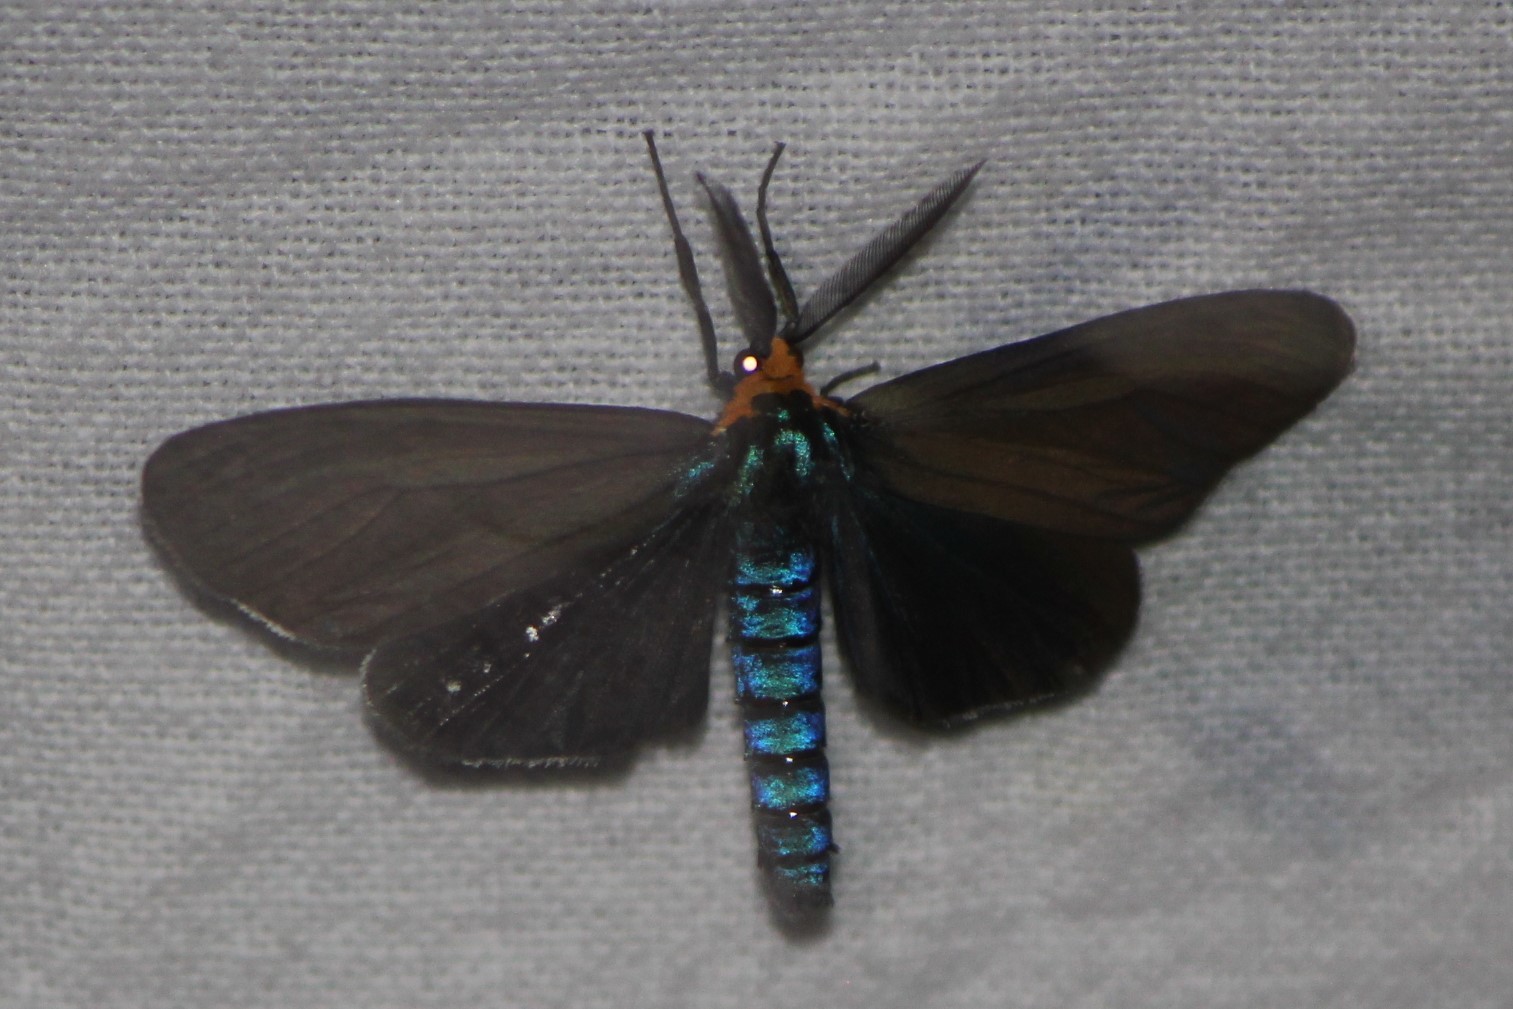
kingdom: Animalia
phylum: Arthropoda
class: Insecta
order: Lepidoptera
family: Erebidae
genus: Ctenucha
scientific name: Ctenucha virginica
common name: Virginia ctenucha moth
